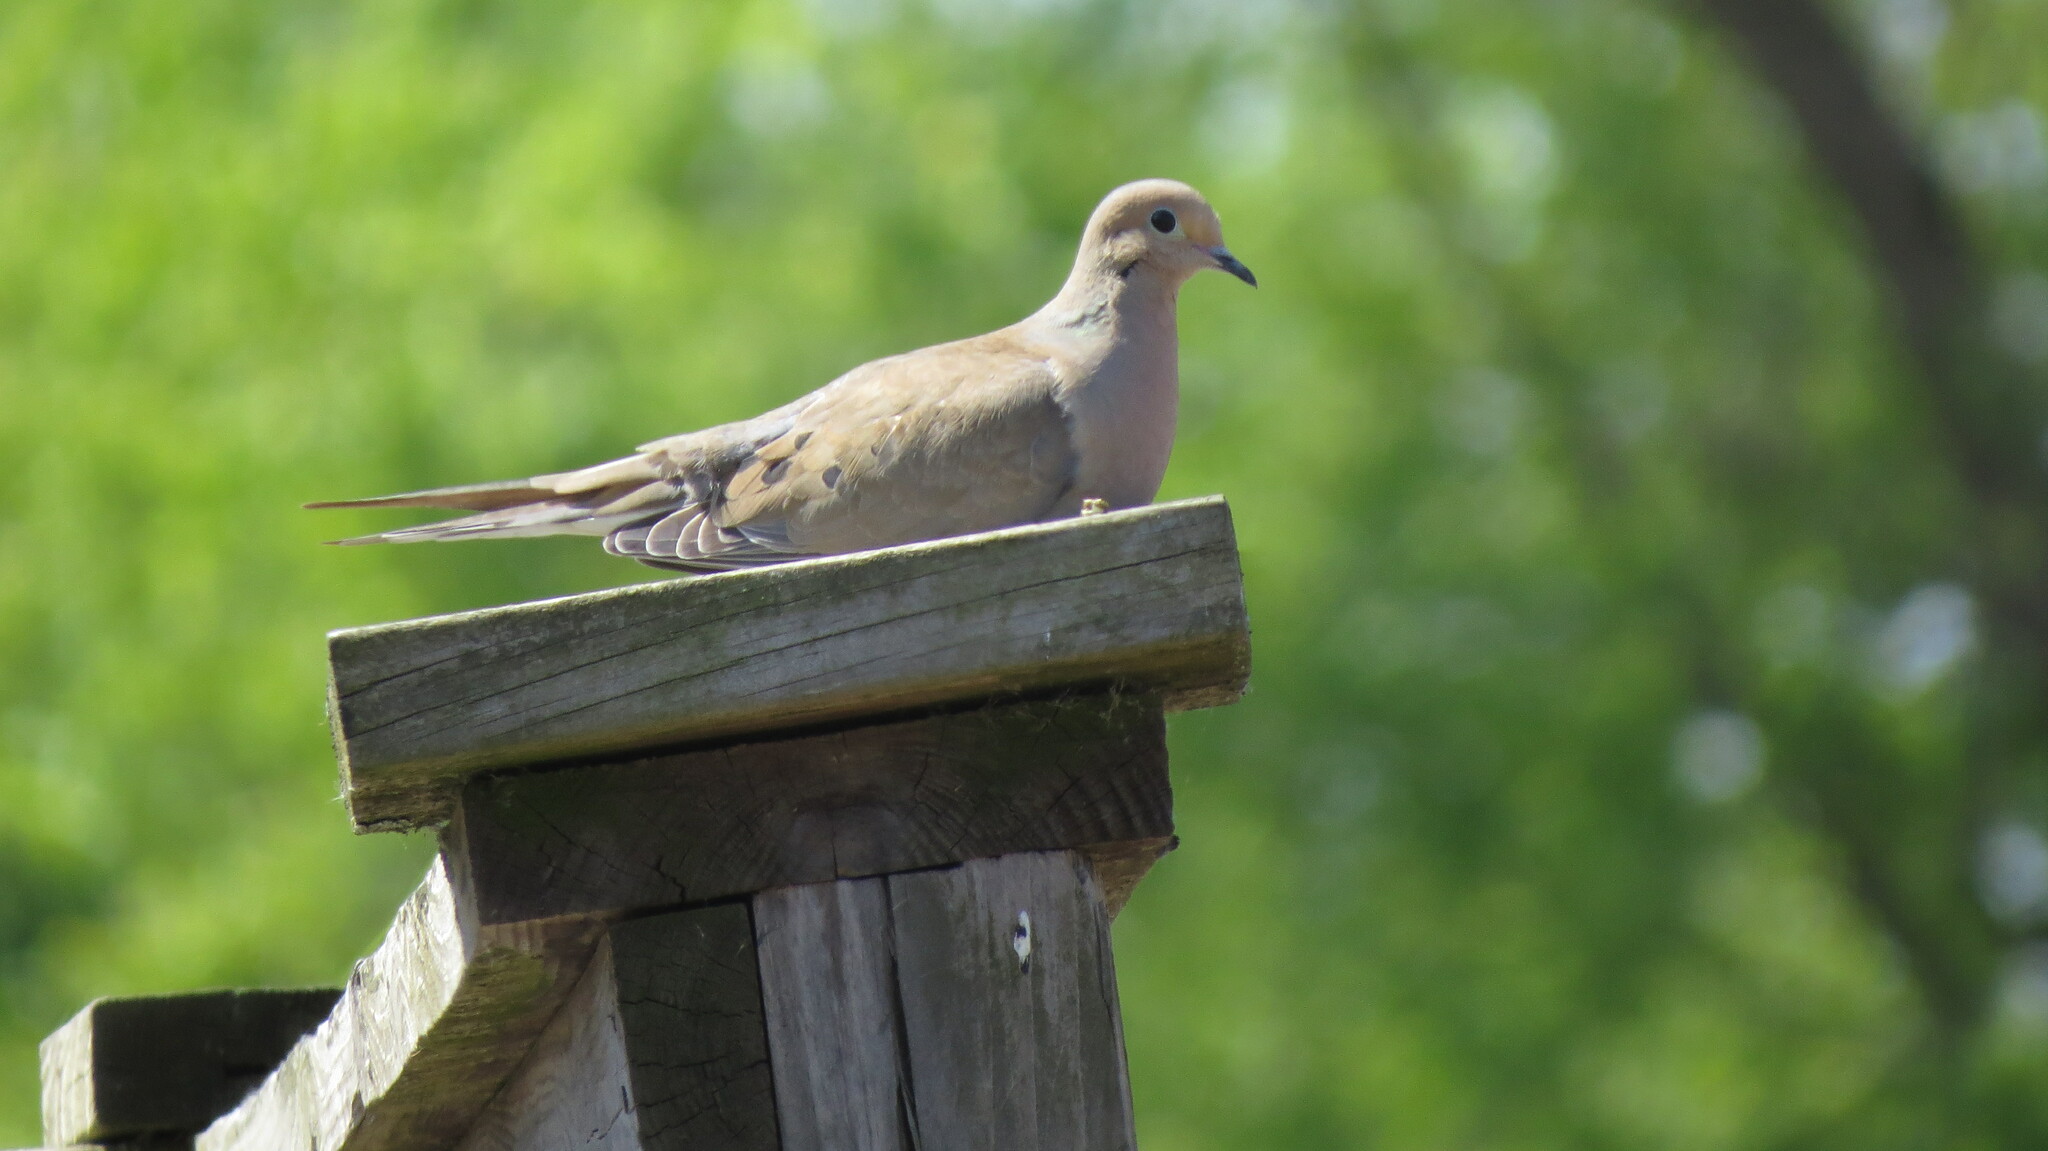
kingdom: Animalia
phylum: Chordata
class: Aves
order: Columbiformes
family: Columbidae
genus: Zenaida
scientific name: Zenaida macroura
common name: Mourning dove
